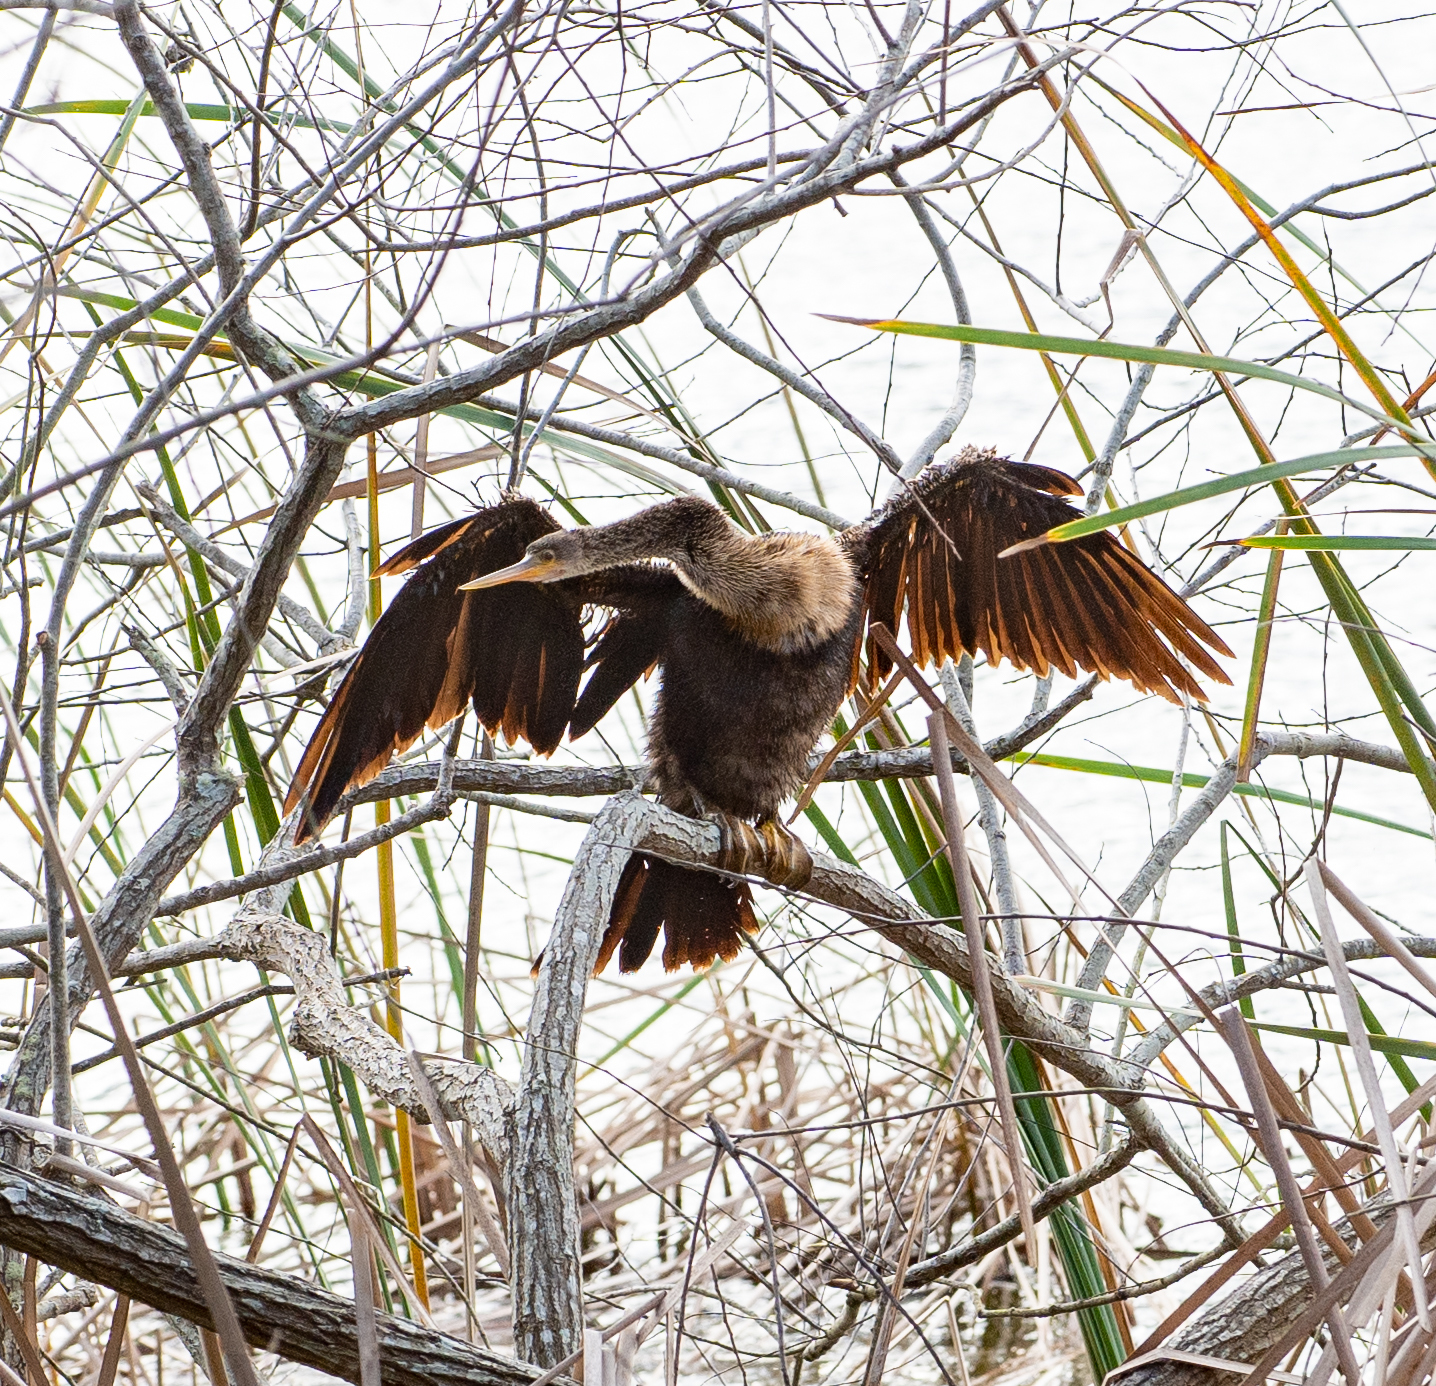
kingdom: Animalia
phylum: Chordata
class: Aves
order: Suliformes
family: Anhingidae
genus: Anhinga
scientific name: Anhinga anhinga
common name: Anhinga
